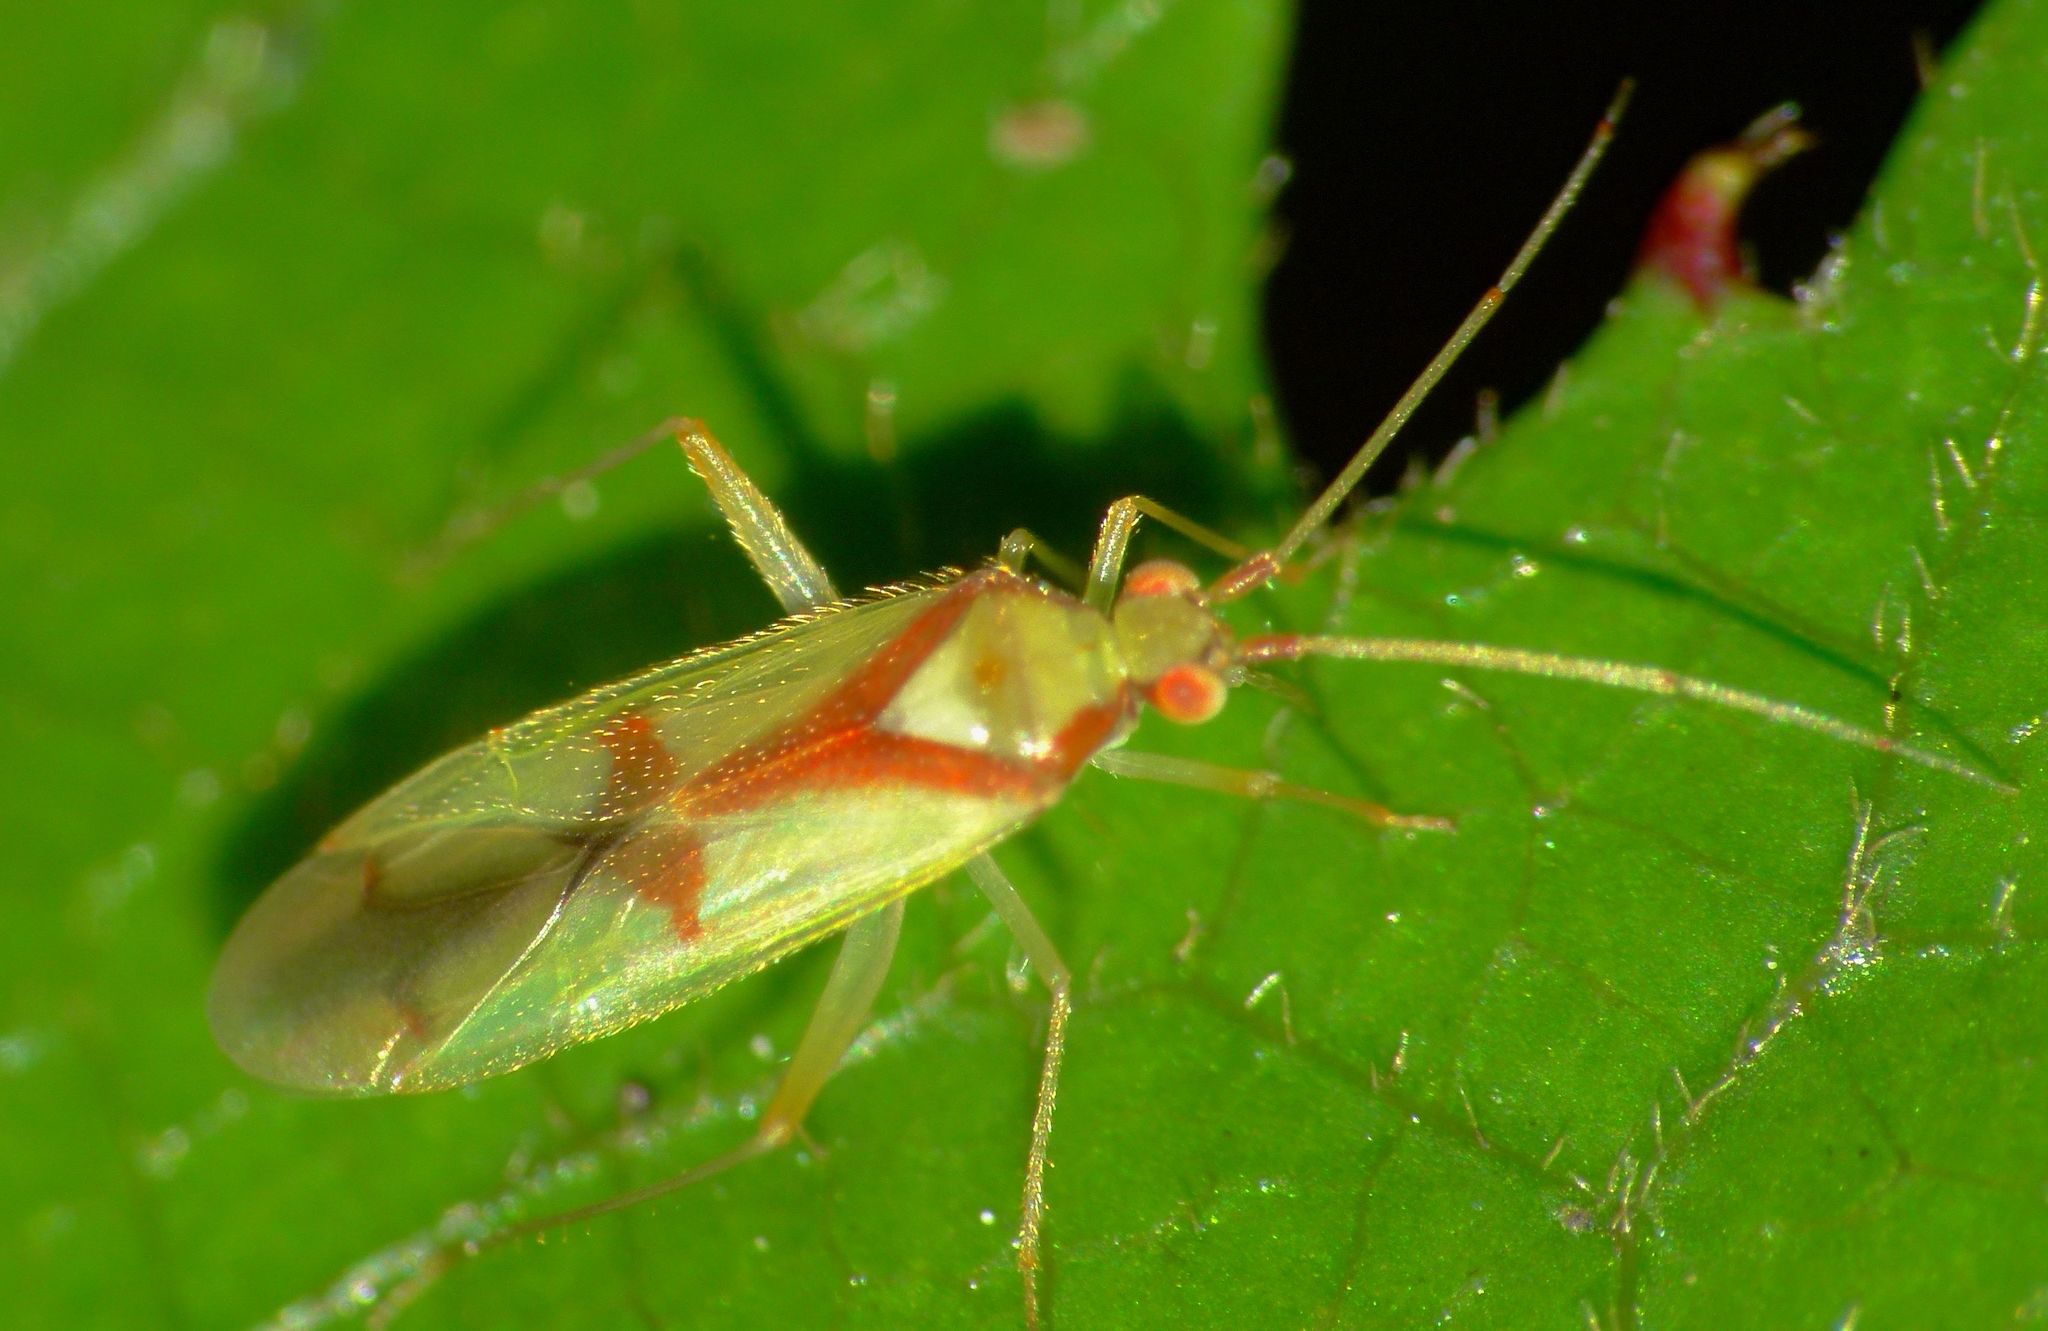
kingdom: Animalia
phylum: Arthropoda
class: Insecta
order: Hemiptera
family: Miridae
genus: Zanchius
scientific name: Zanchius rubicrux
